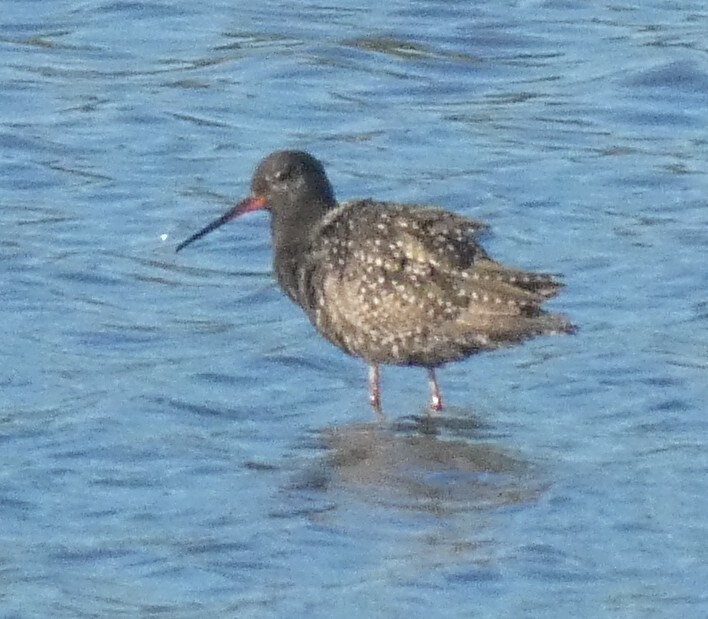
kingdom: Animalia
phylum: Chordata
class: Aves
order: Charadriiformes
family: Scolopacidae
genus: Tringa
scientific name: Tringa erythropus
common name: Spotted redshank
